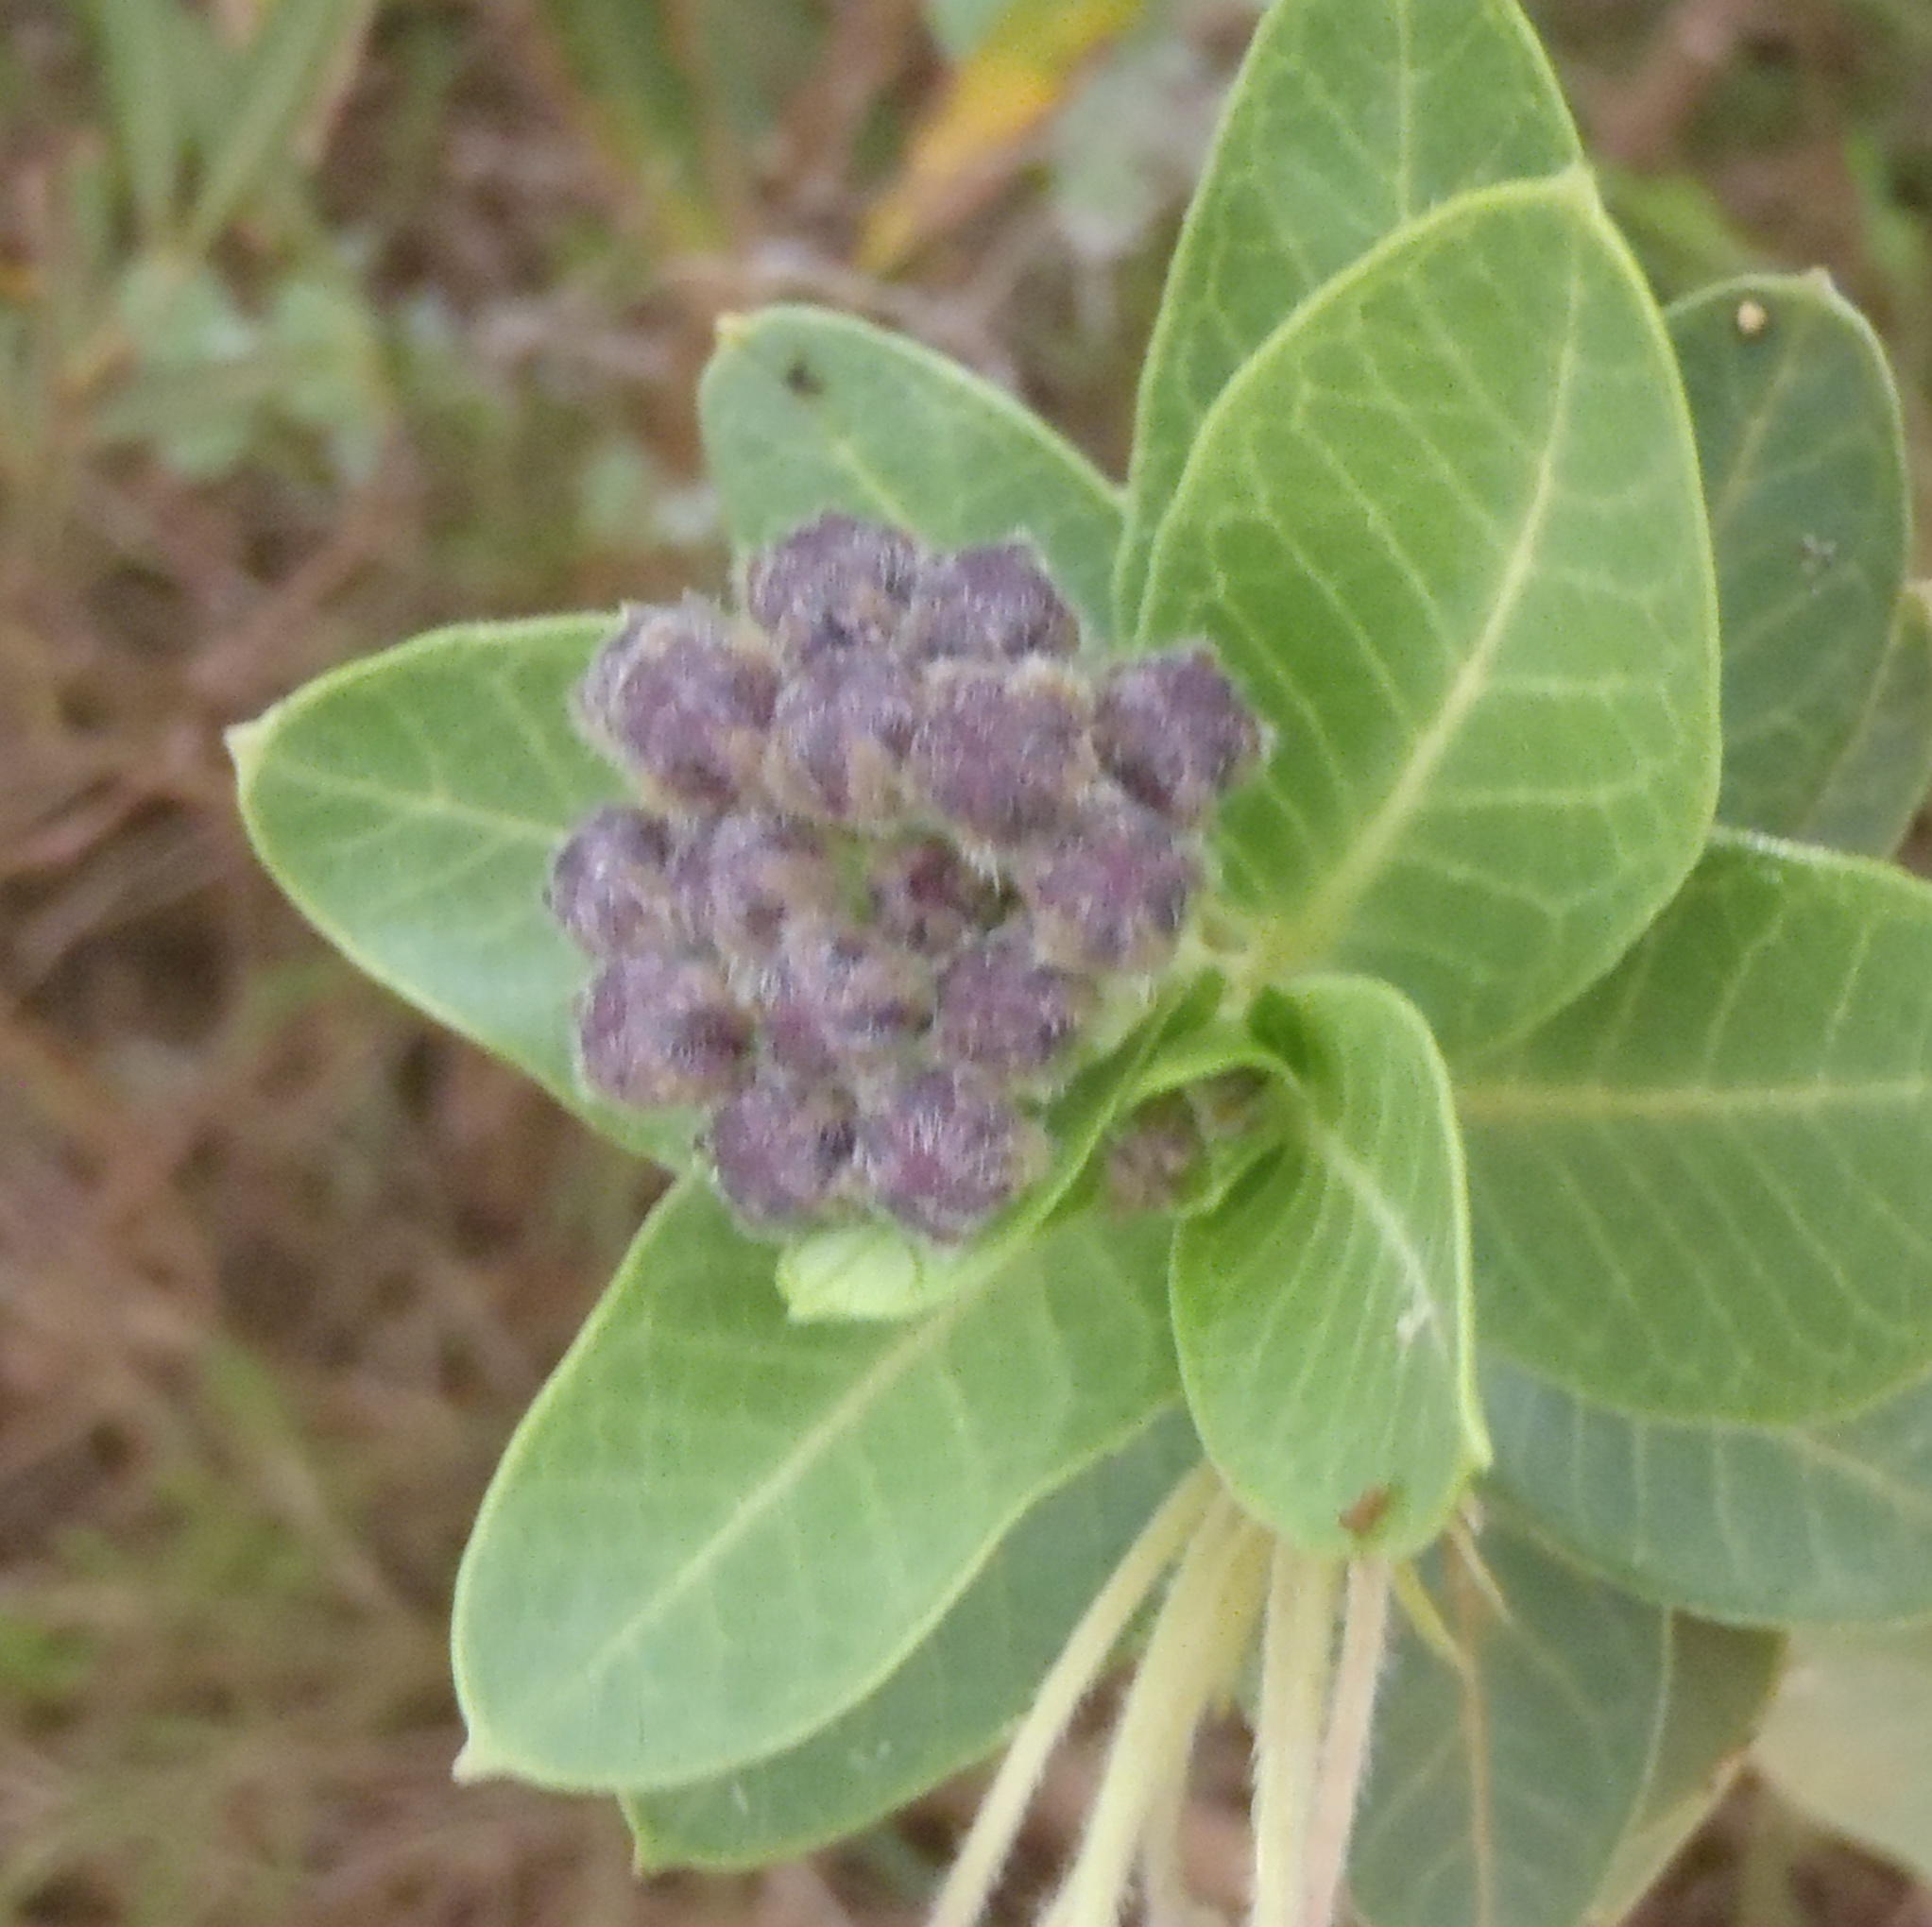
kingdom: Plantae
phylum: Tracheophyta
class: Magnoliopsida
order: Gentianales
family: Apocynaceae
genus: Gomphocarpus
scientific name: Gomphocarpus cancellatus
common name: Wild cotton
